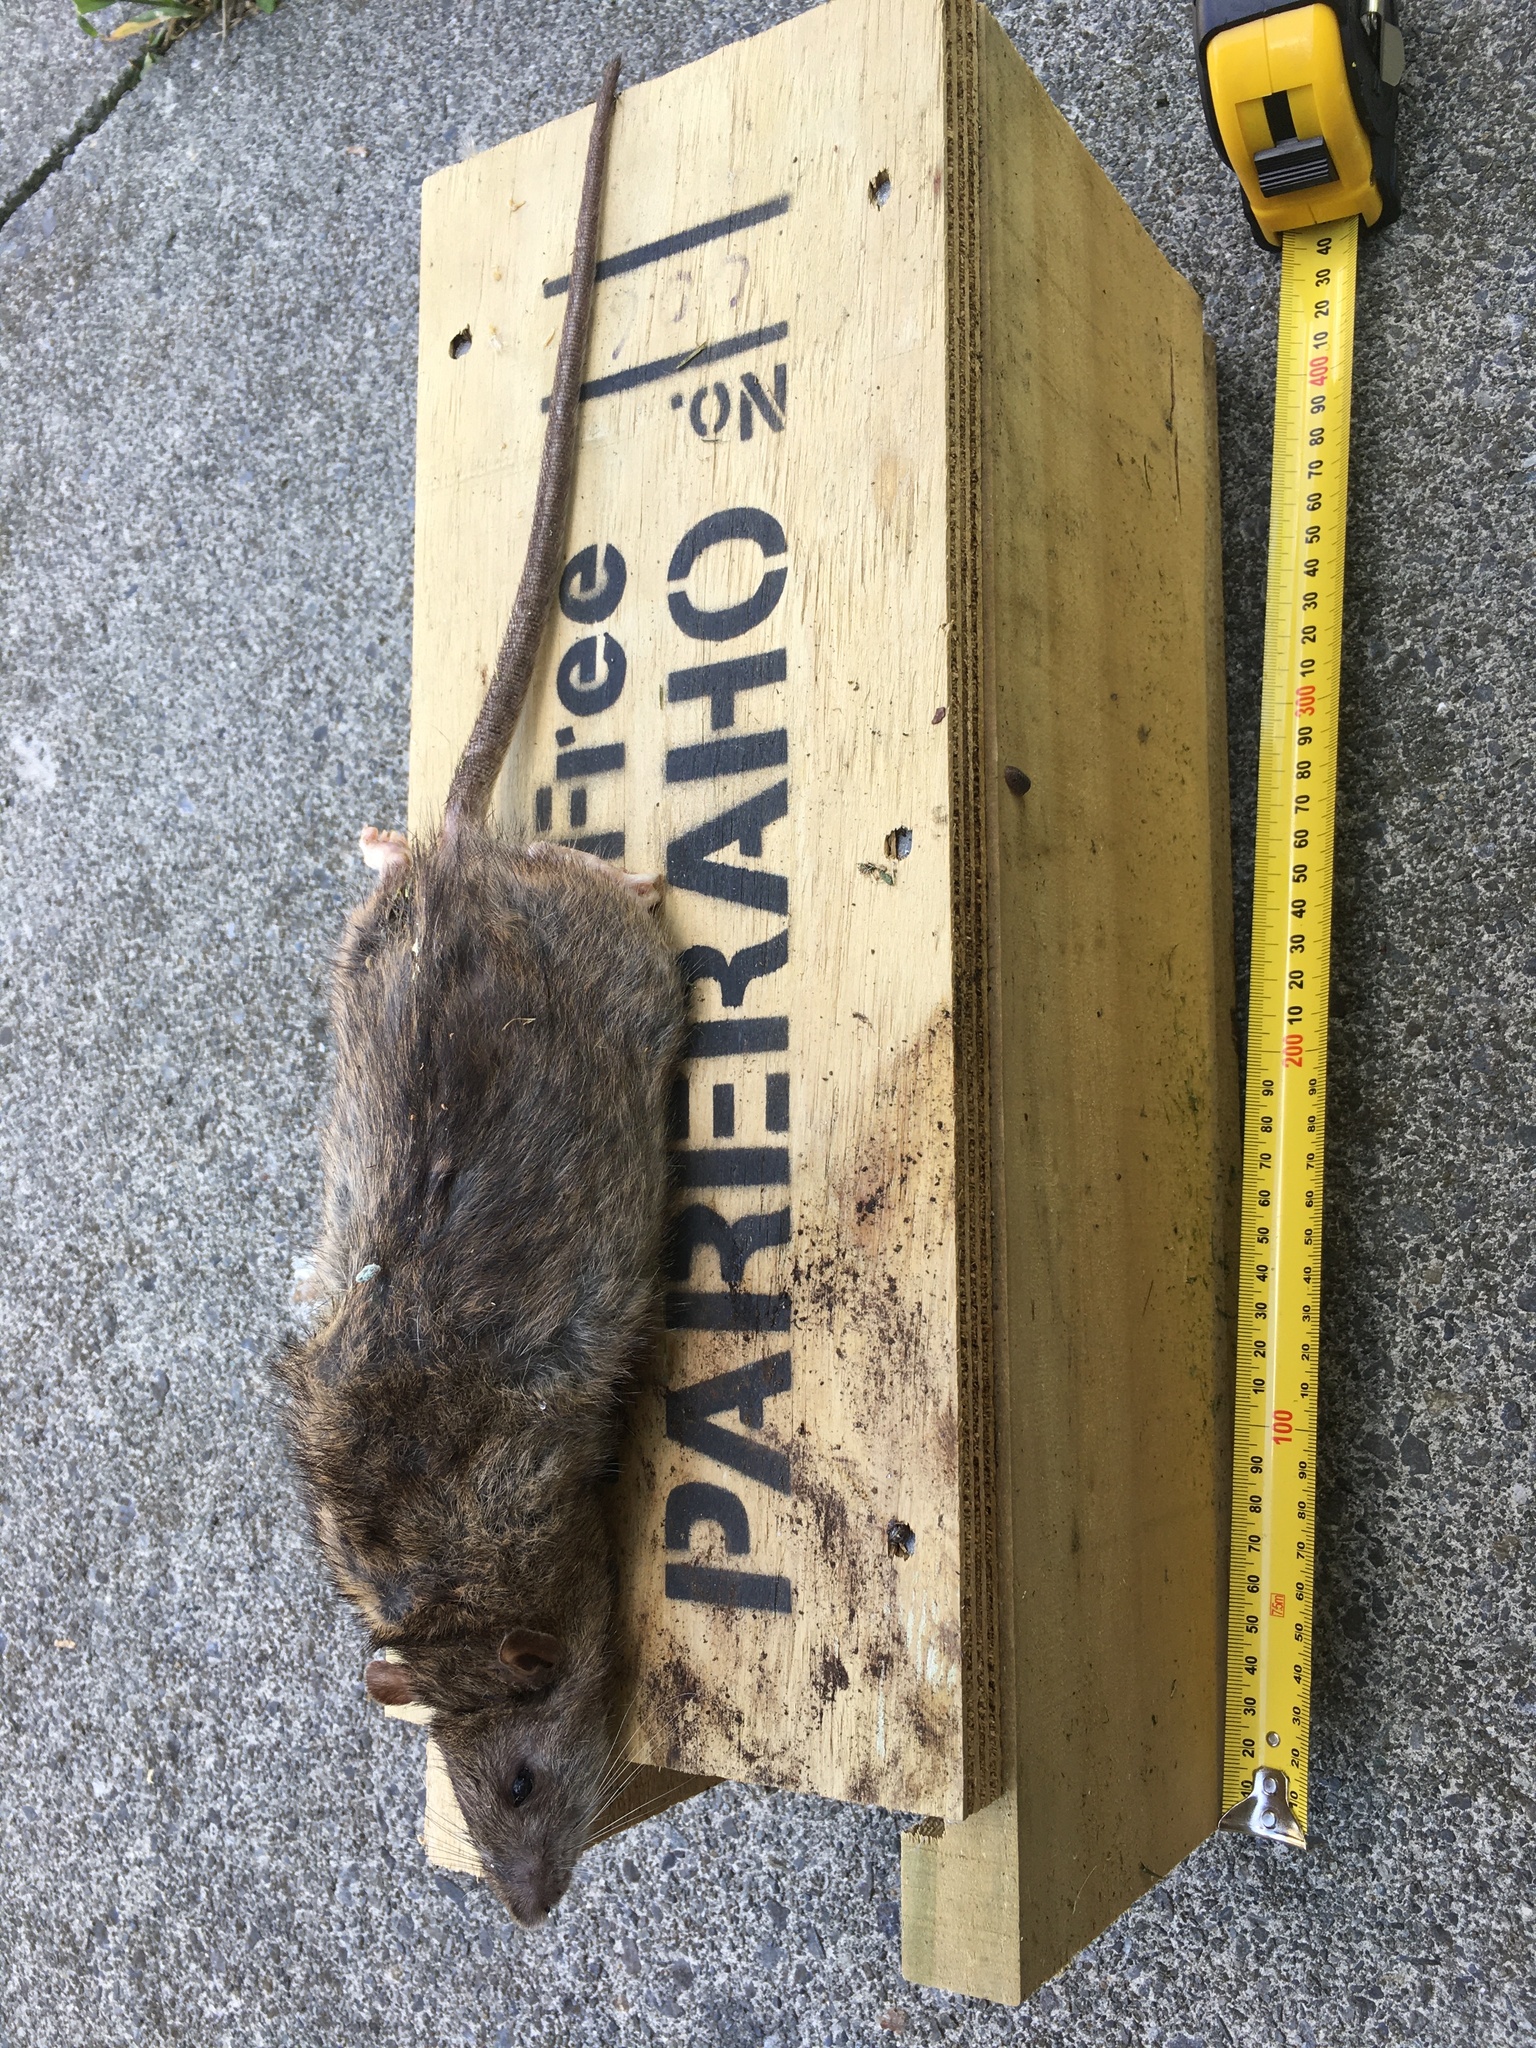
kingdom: Animalia
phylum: Chordata
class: Mammalia
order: Rodentia
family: Muridae
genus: Rattus
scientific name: Rattus norvegicus
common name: Brown rat
